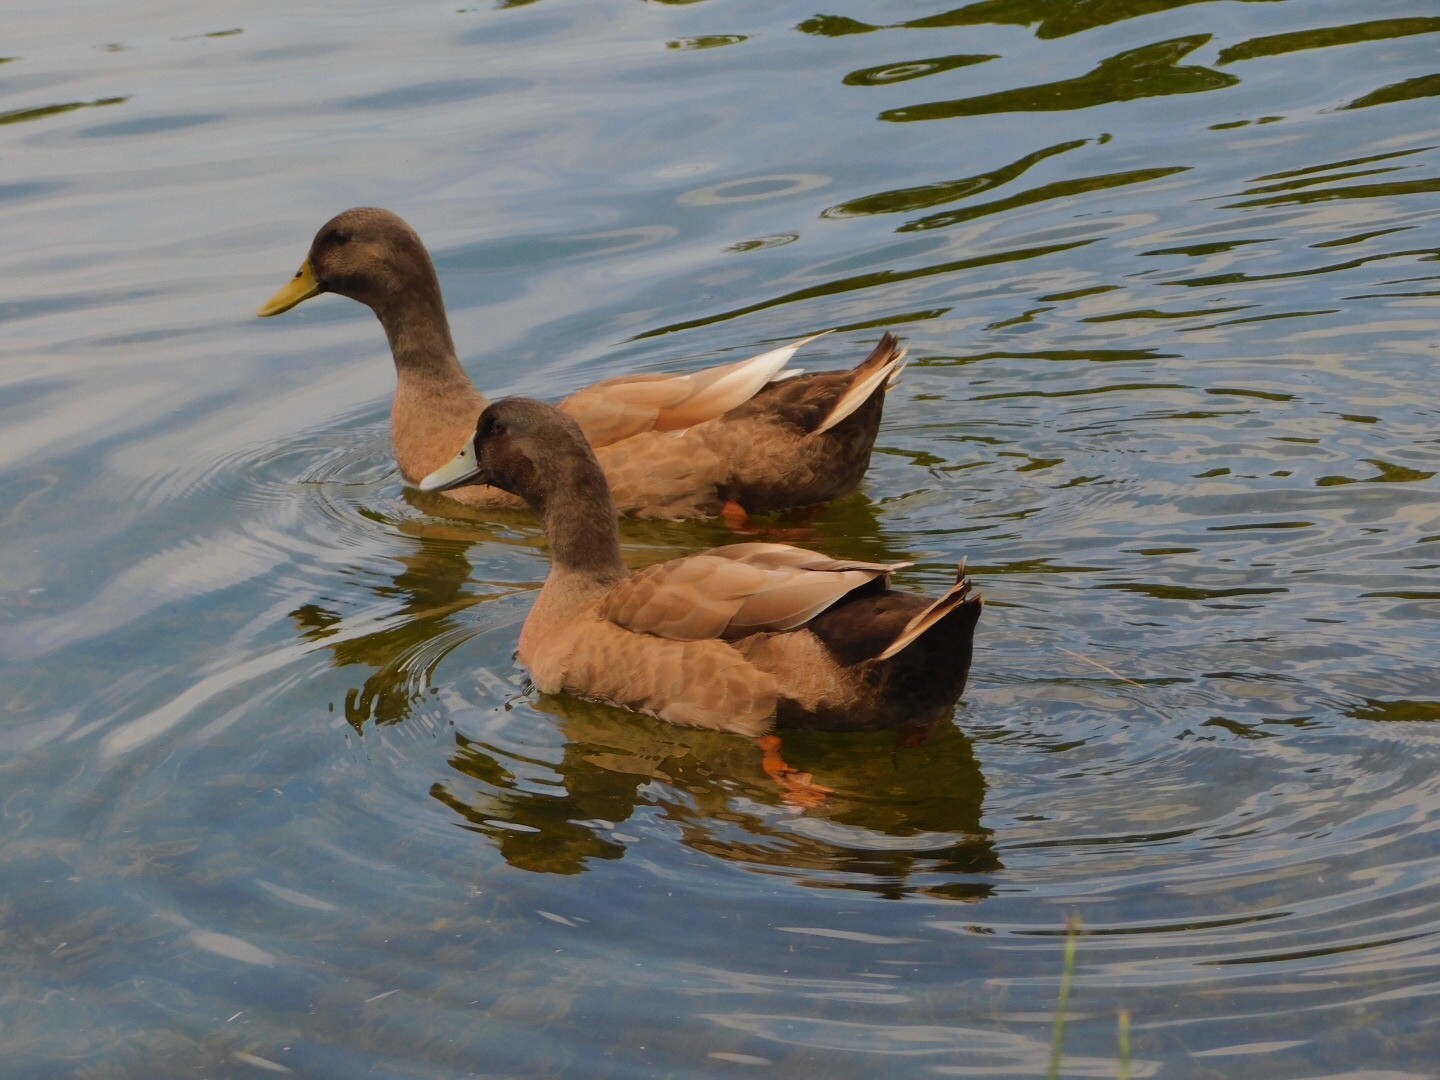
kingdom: Animalia
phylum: Chordata
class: Aves
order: Anseriformes
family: Anatidae
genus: Anas
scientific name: Anas platyrhynchos
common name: Mallard
